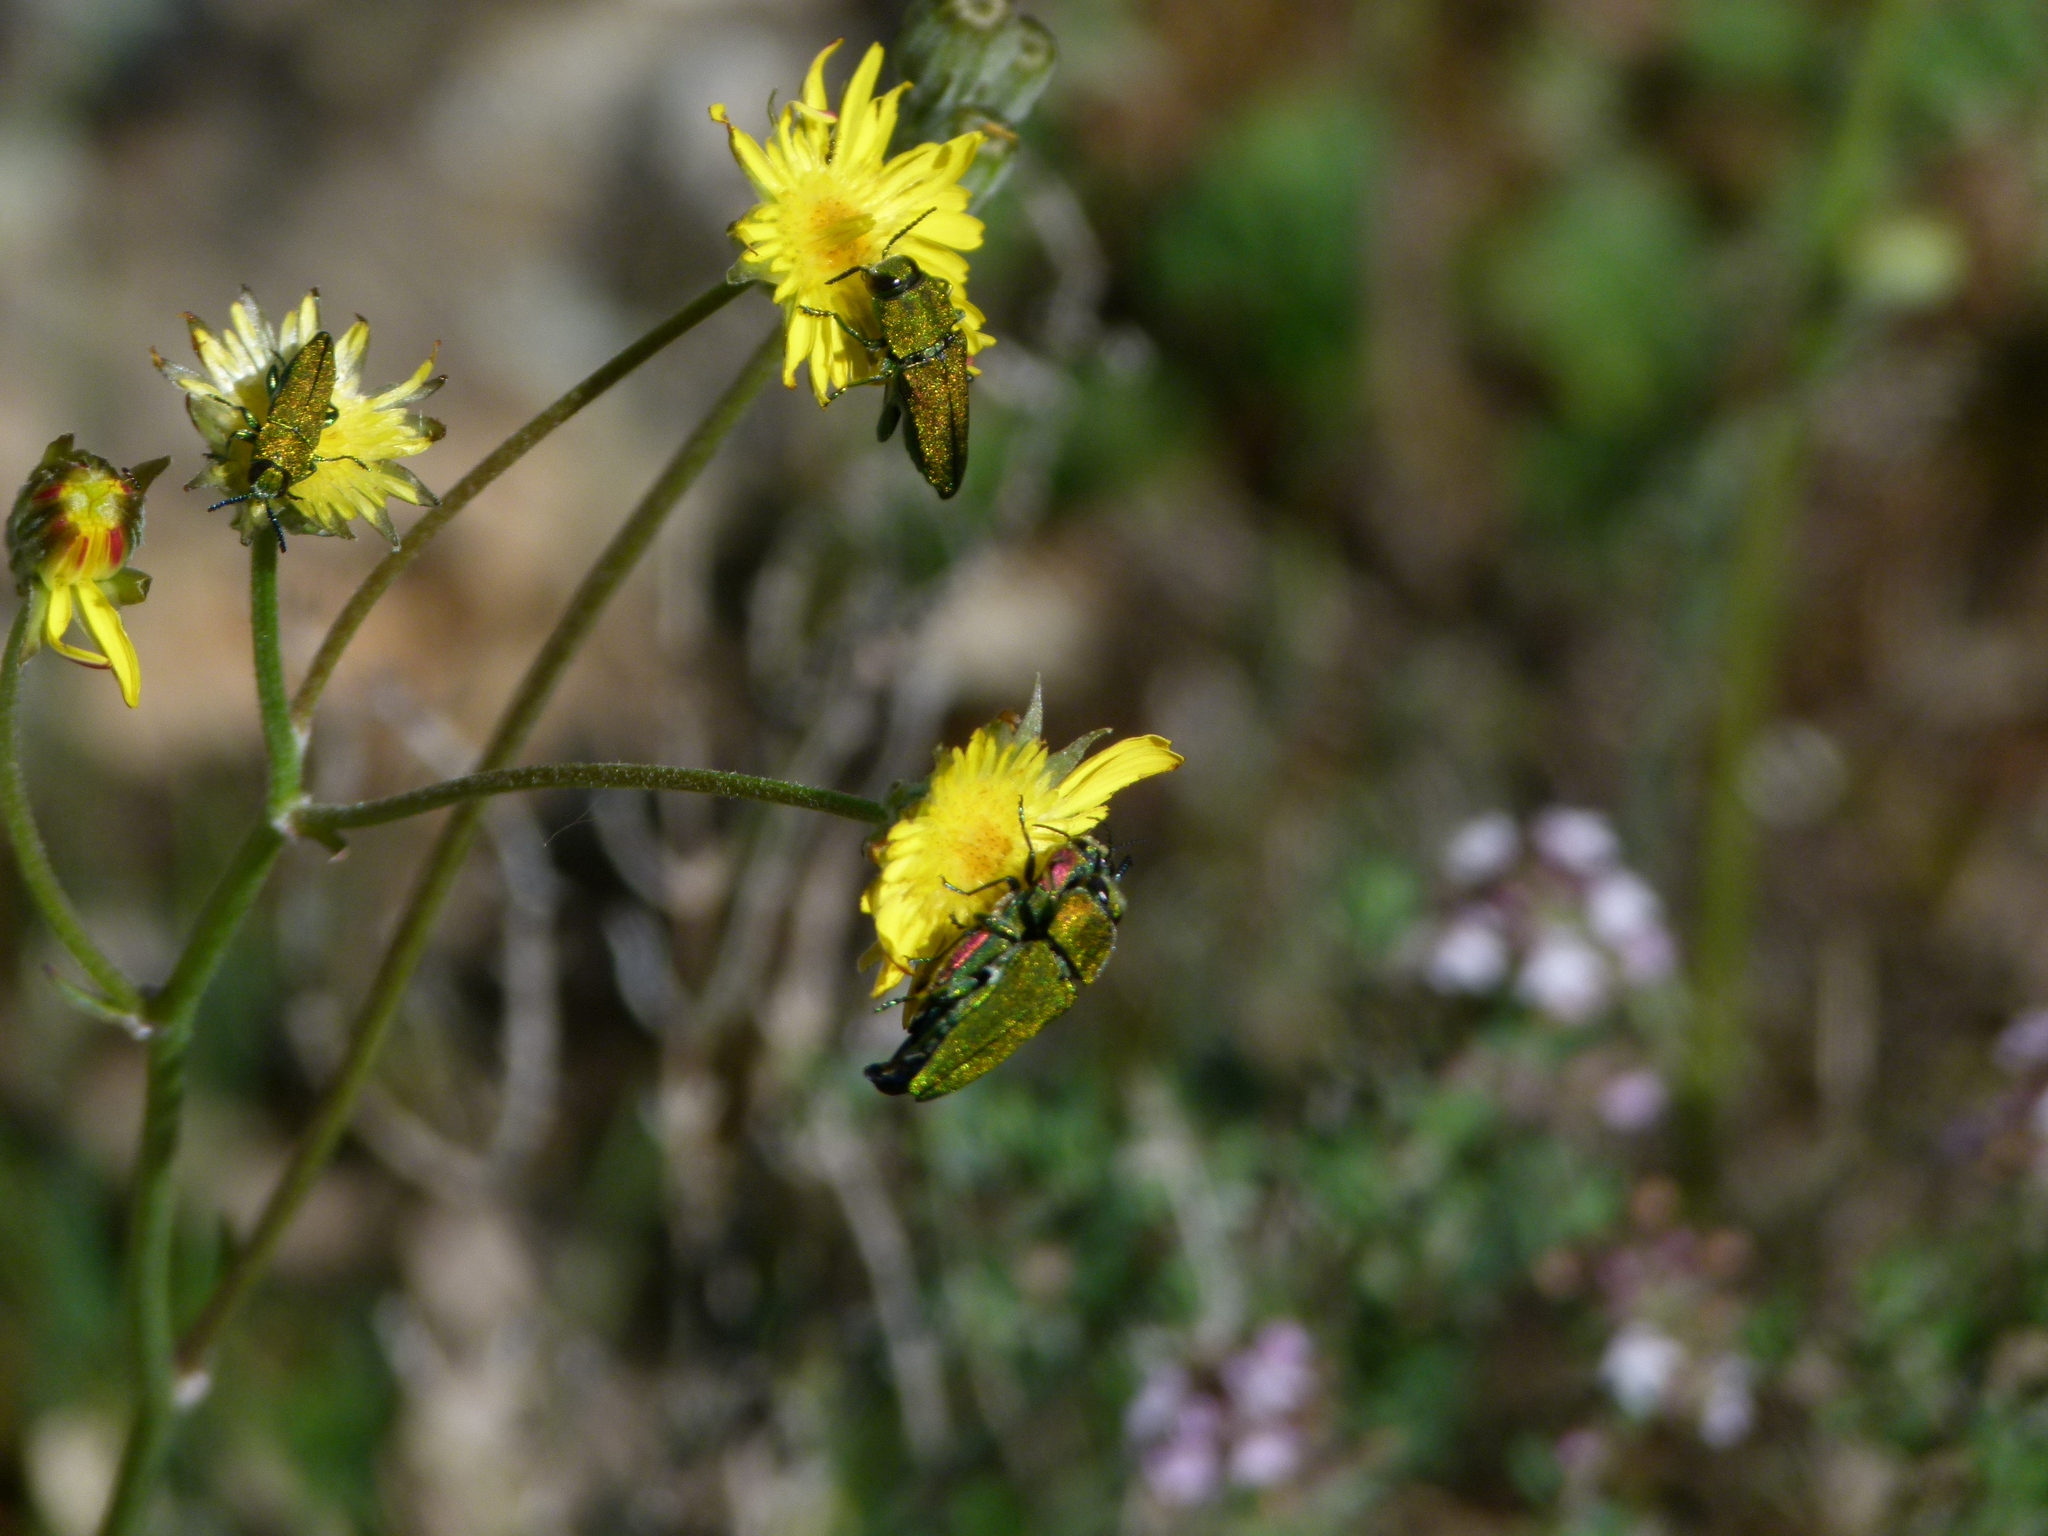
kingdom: Animalia
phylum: Arthropoda
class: Insecta
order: Coleoptera
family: Buprestidae
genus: Anthaxia
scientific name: Anthaxia hungarica
